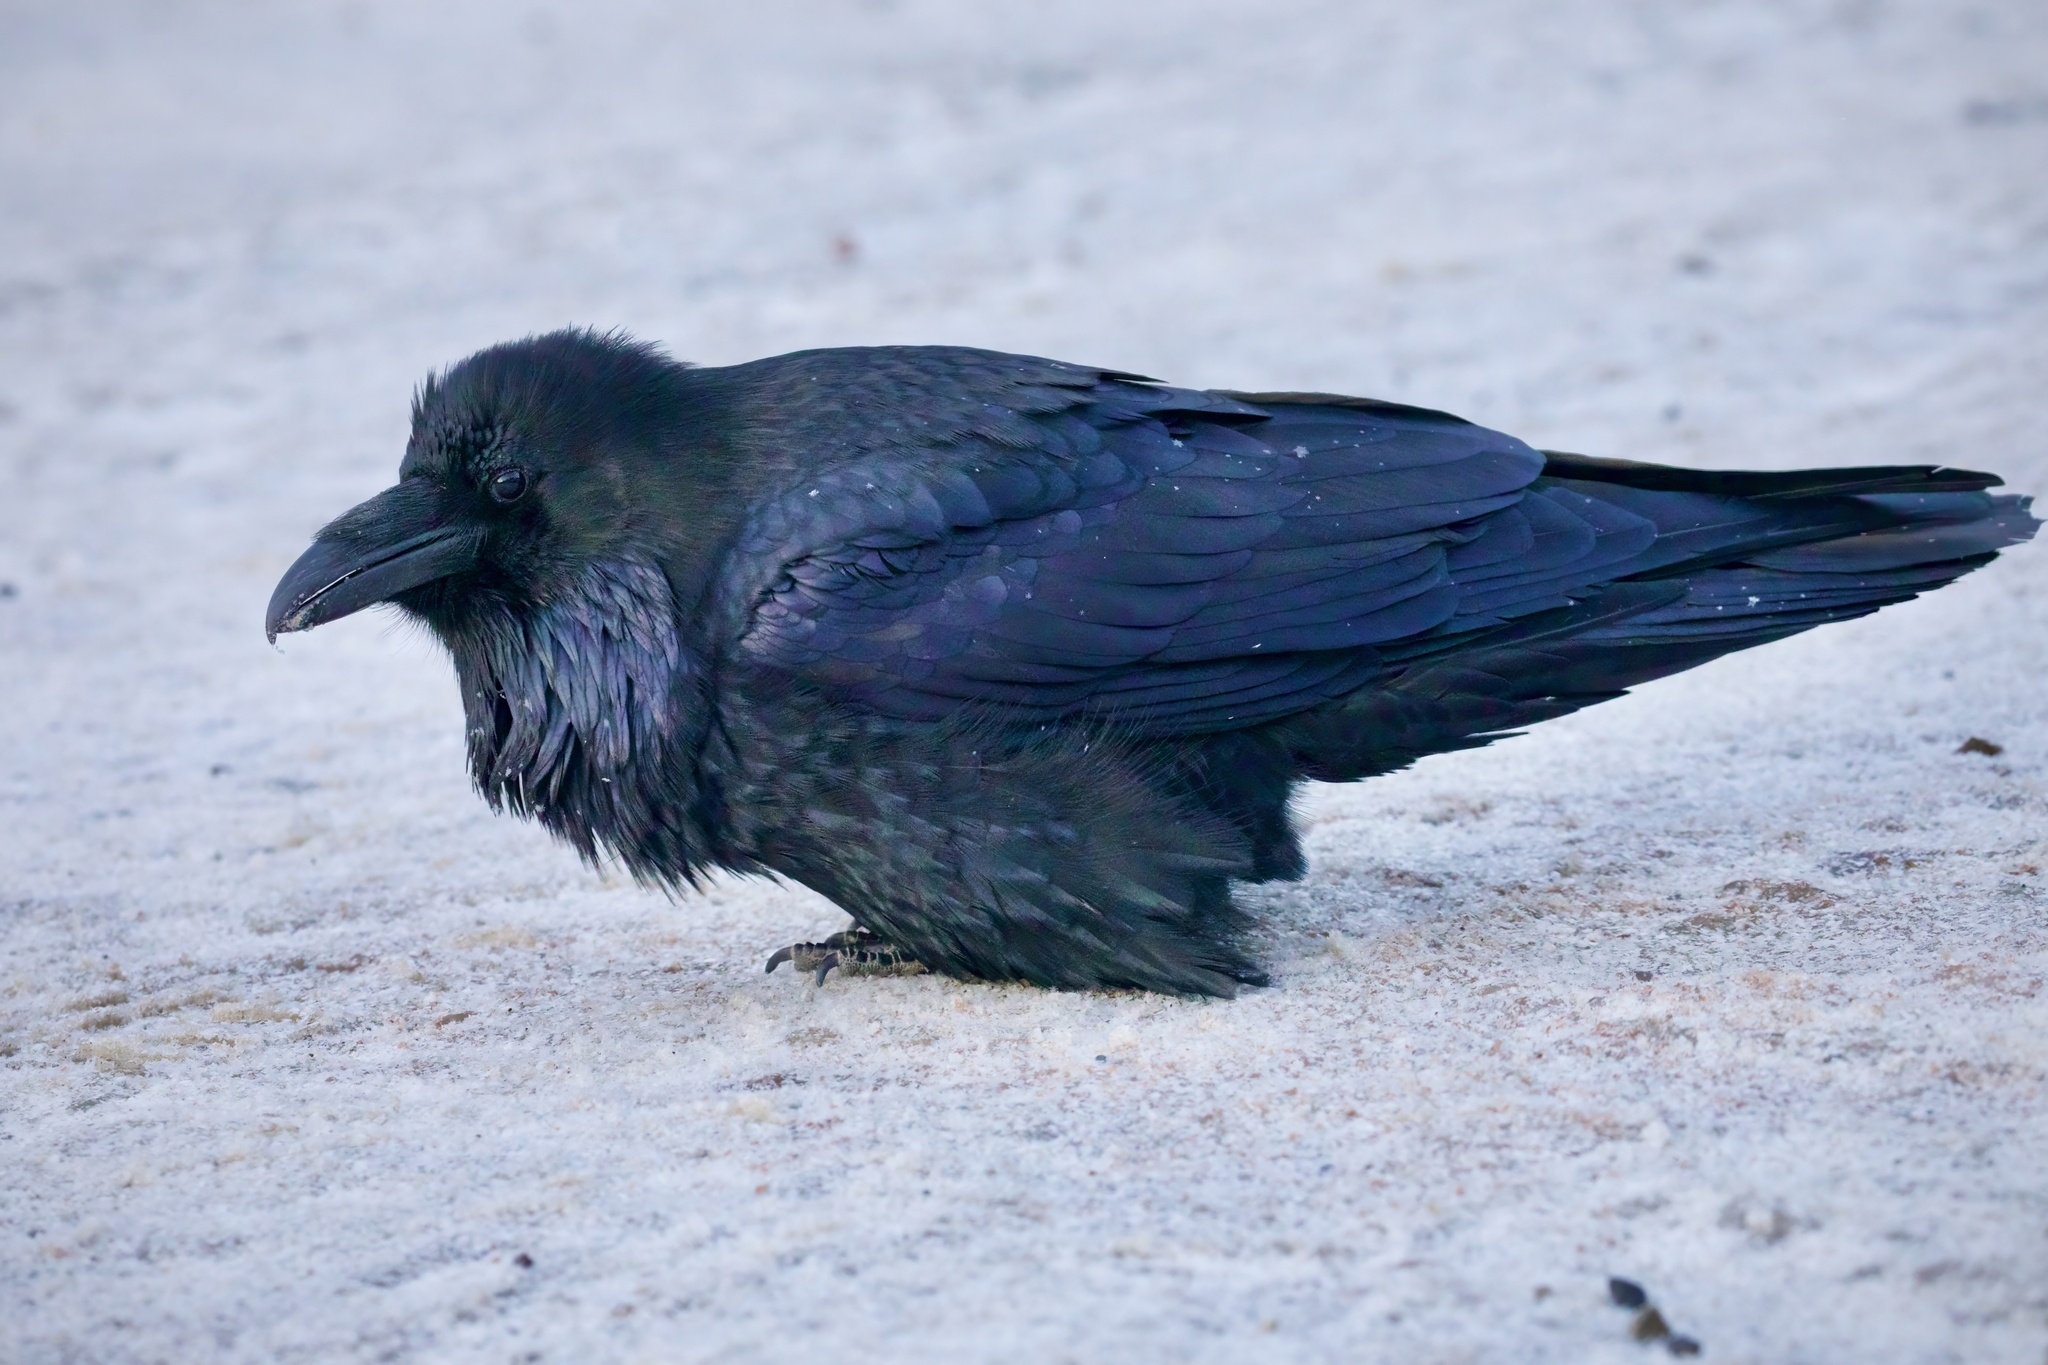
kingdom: Animalia
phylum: Chordata
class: Aves
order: Passeriformes
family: Corvidae
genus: Corvus
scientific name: Corvus corax
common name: Common raven
